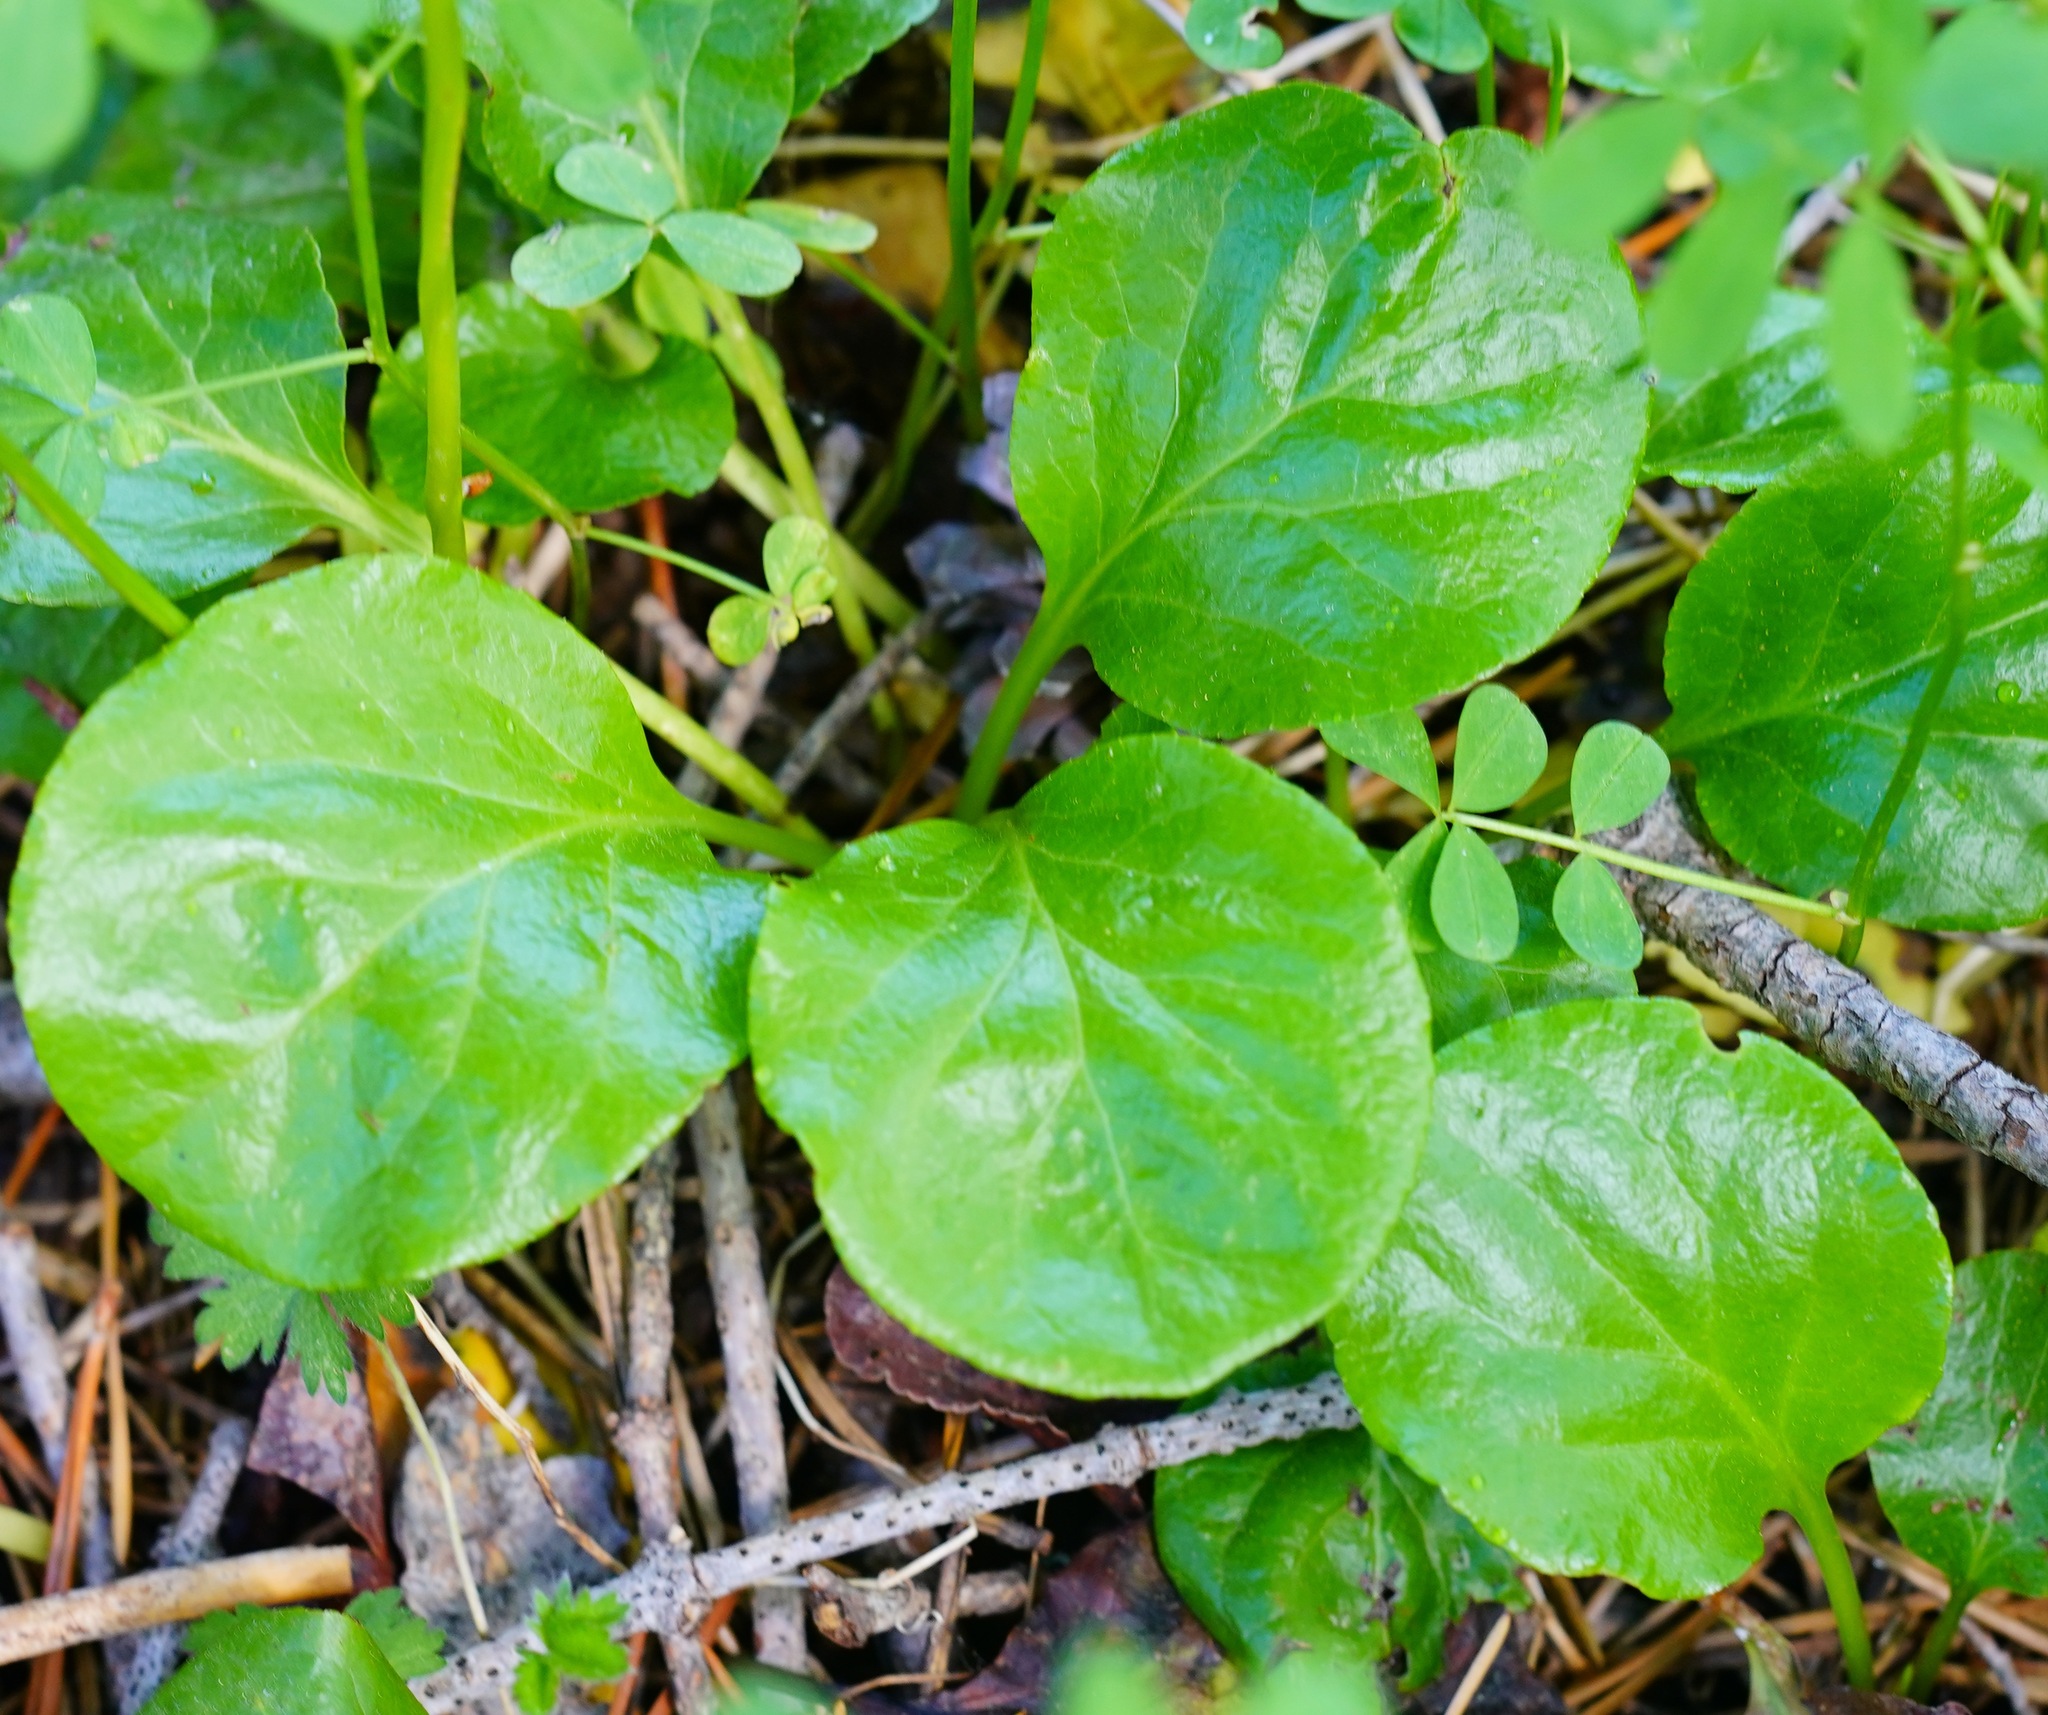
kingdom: Plantae
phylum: Tracheophyta
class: Magnoliopsida
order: Ericales
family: Ericaceae
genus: Pyrola
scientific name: Pyrola asarifolia
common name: Bog wintergreen
